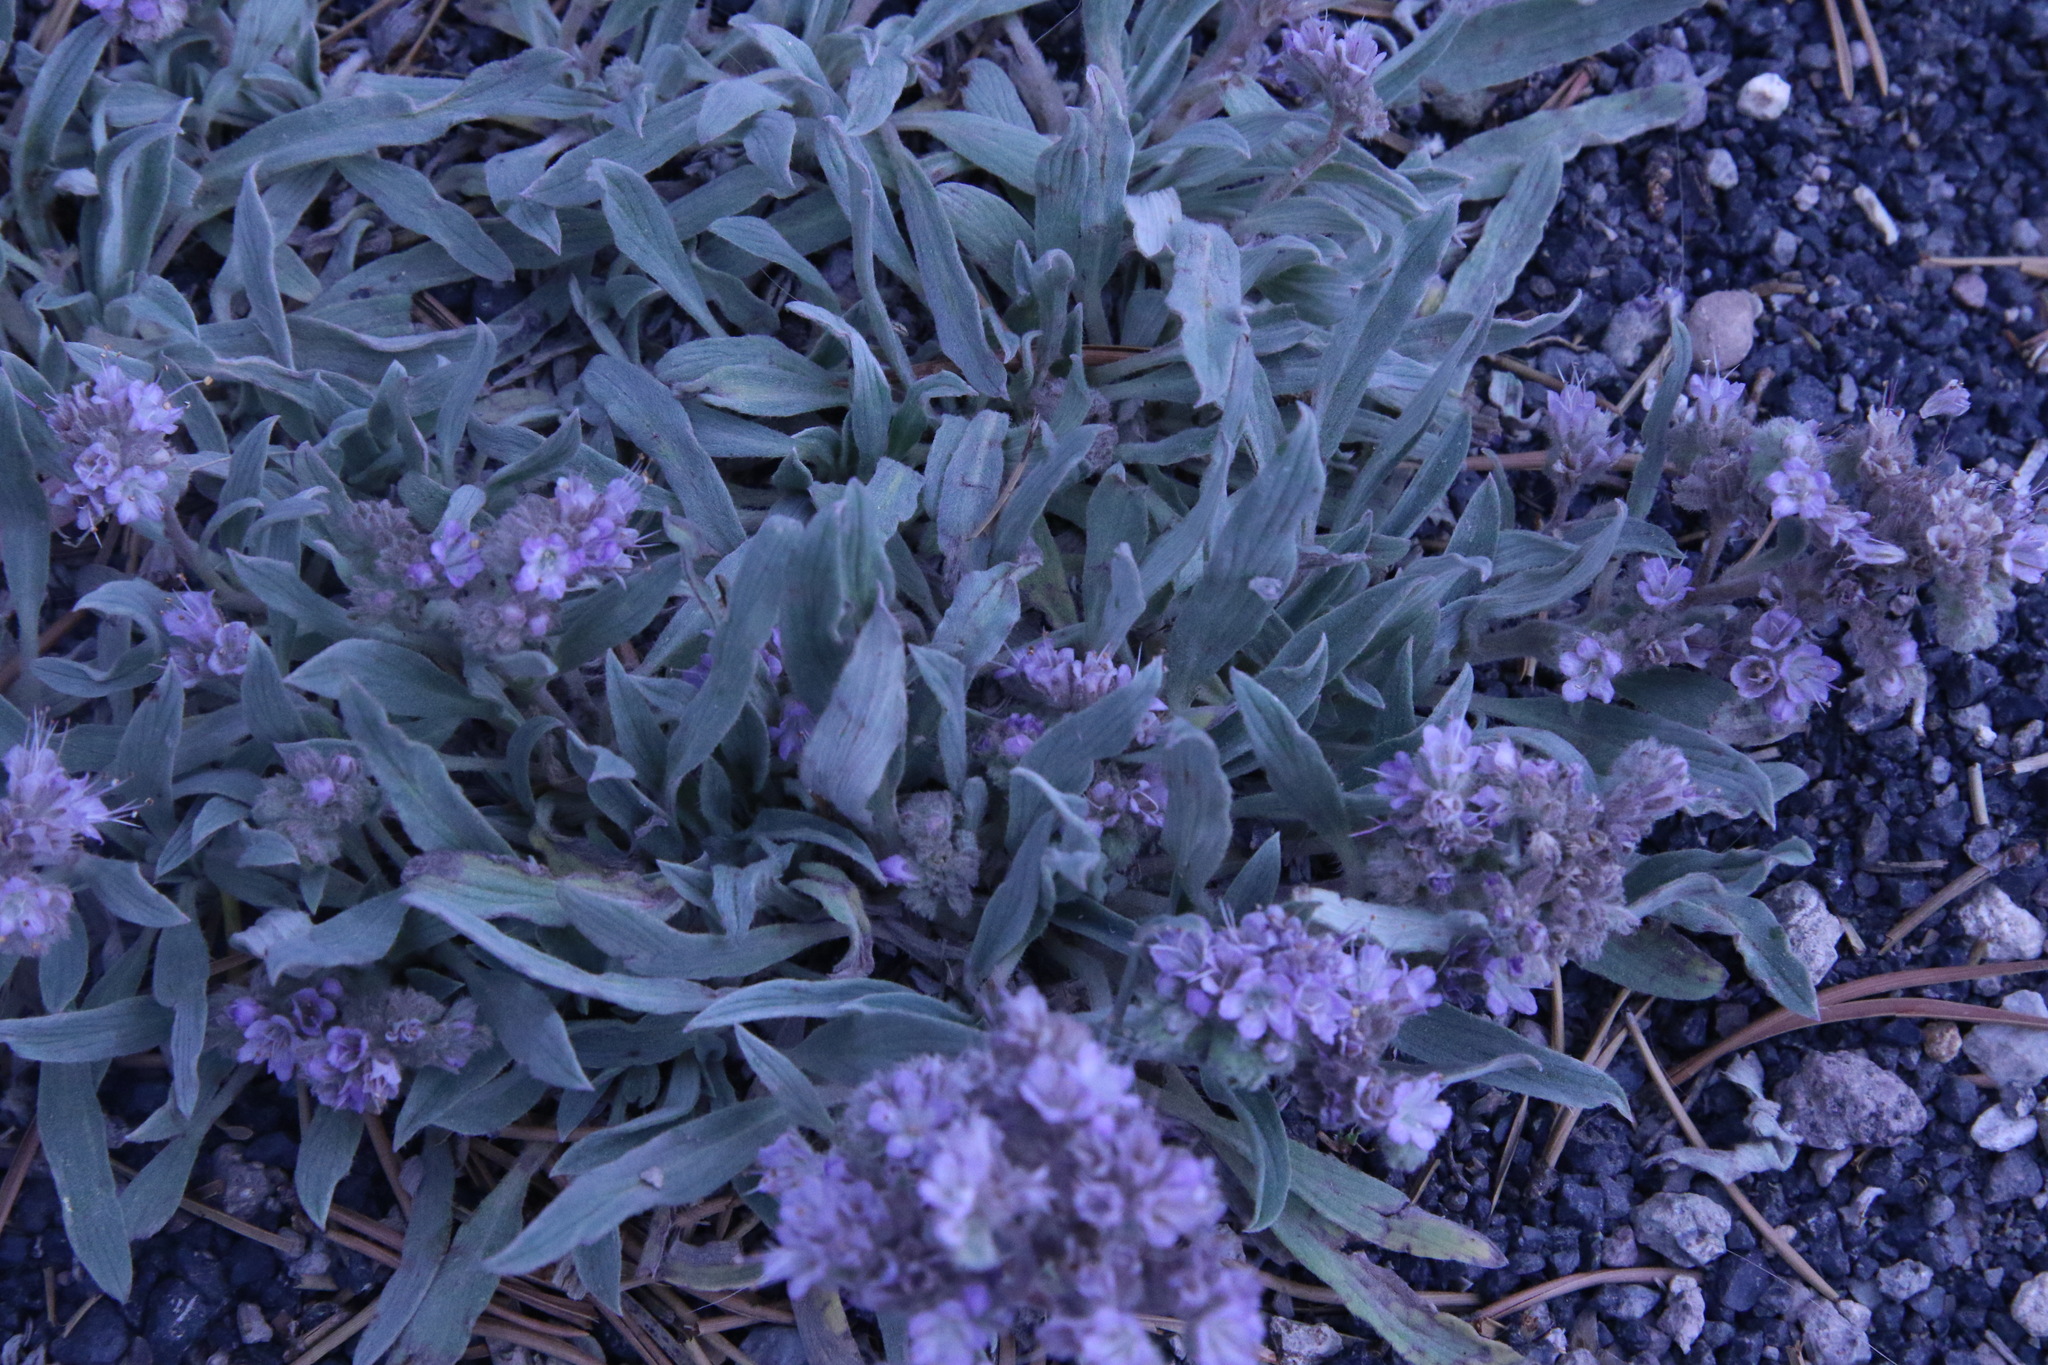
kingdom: Plantae
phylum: Tracheophyta
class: Magnoliopsida
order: Boraginales
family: Hydrophyllaceae
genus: Phacelia
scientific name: Phacelia hastata
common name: Silver-leaved phacelia
